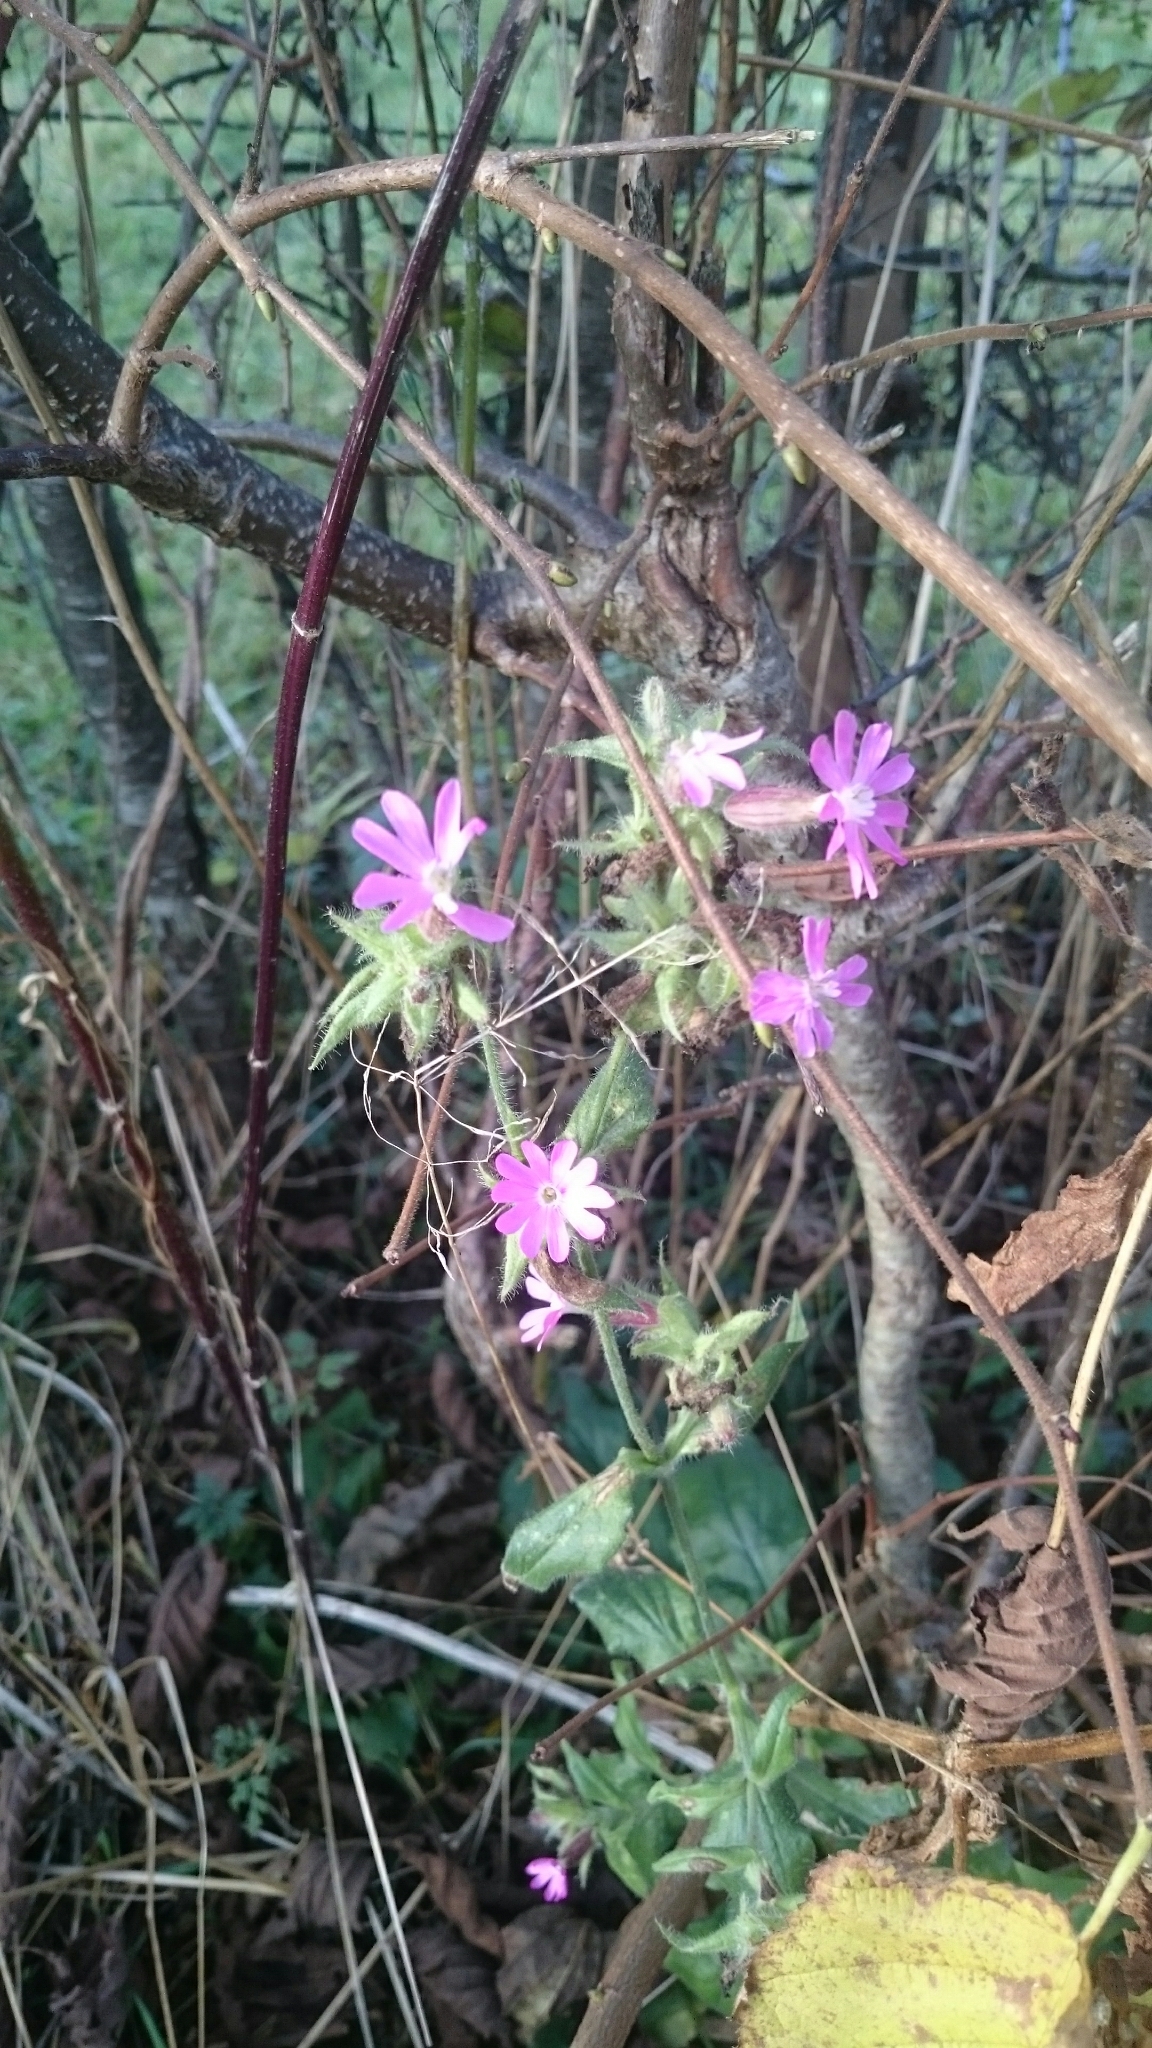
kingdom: Plantae
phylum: Tracheophyta
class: Magnoliopsida
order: Caryophyllales
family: Caryophyllaceae
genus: Silene
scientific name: Silene dioica
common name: Red campion
